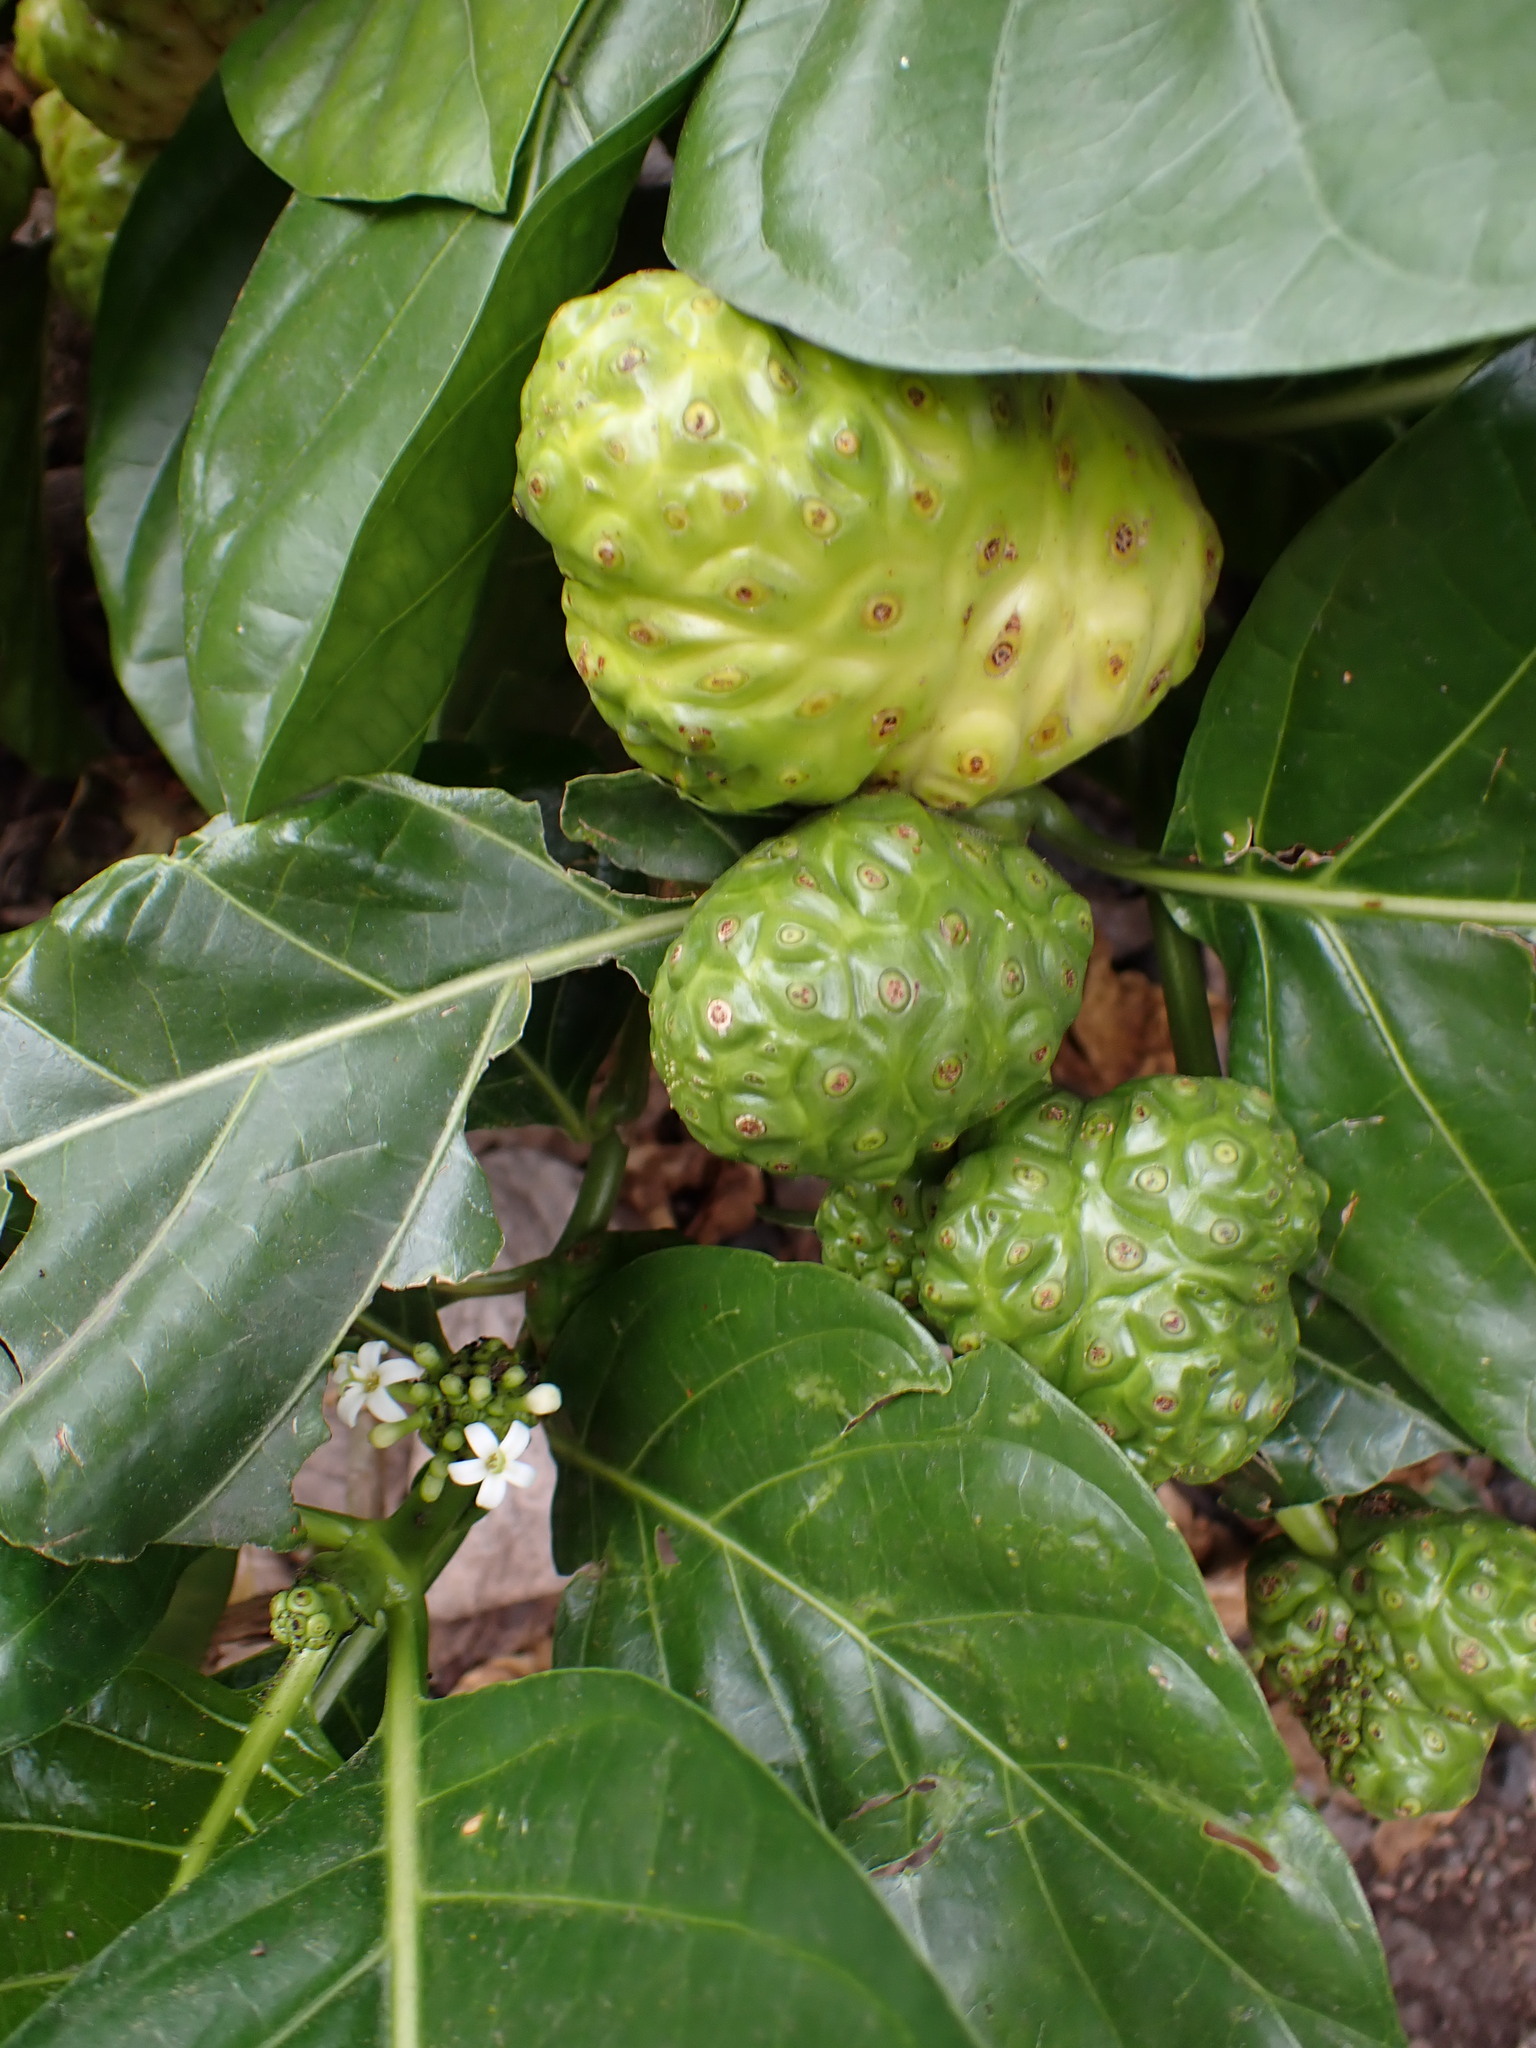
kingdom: Plantae
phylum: Tracheophyta
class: Magnoliopsida
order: Gentianales
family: Rubiaceae
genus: Morinda
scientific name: Morinda citrifolia
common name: Indian-mulberry
